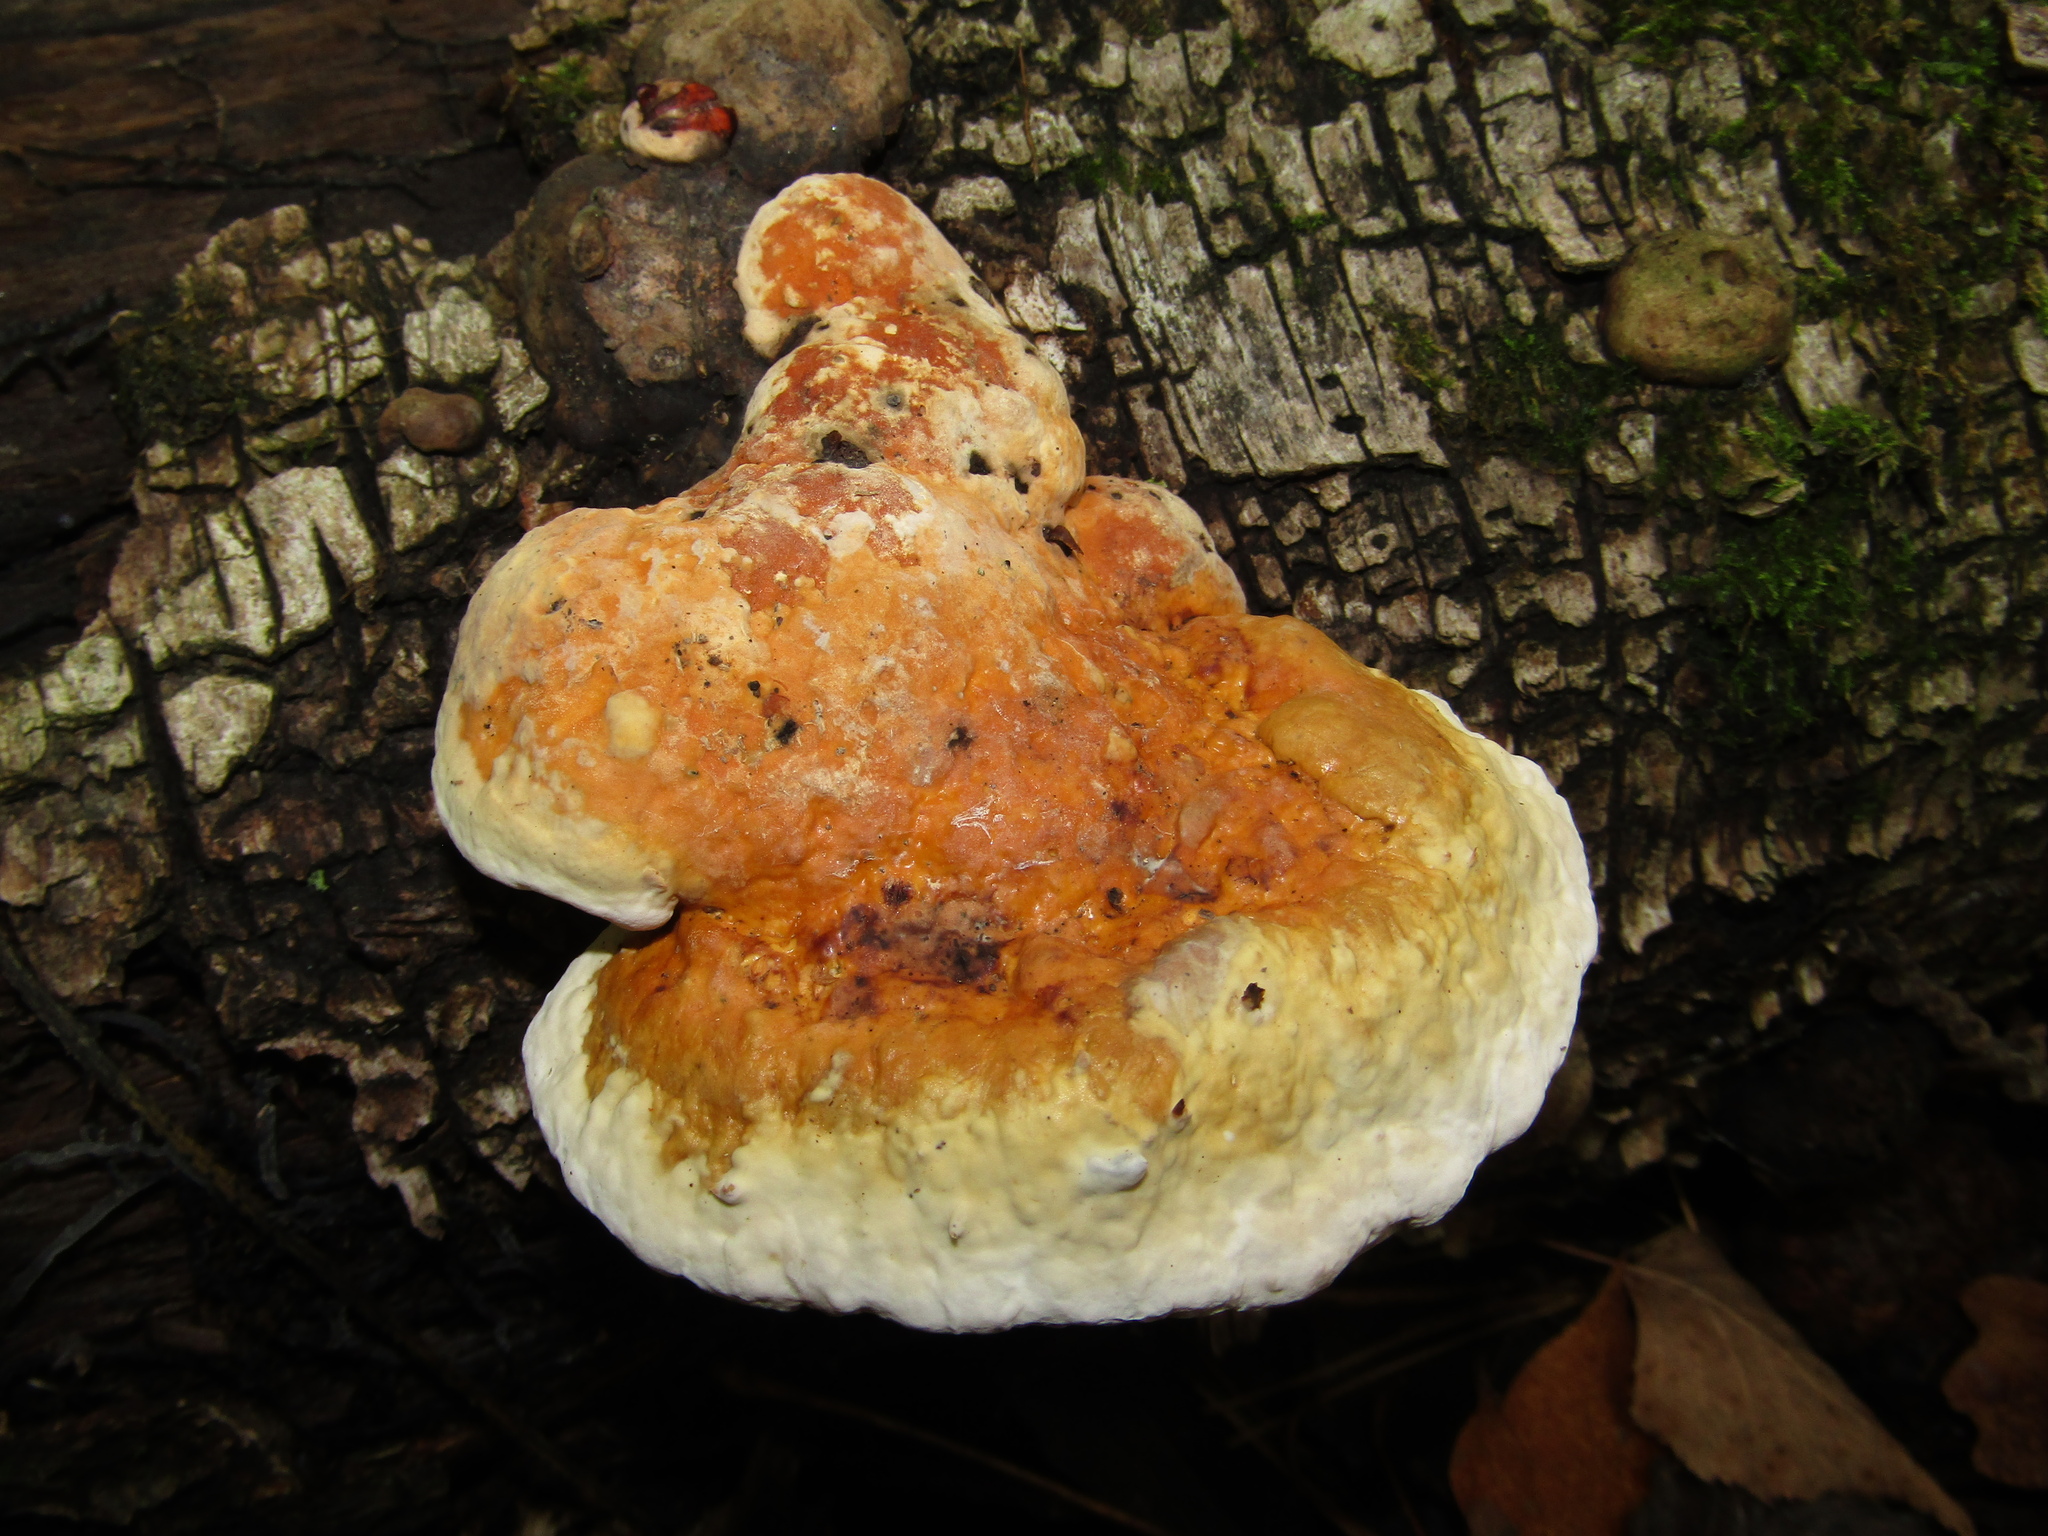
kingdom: Fungi
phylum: Basidiomycota
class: Agaricomycetes
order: Polyporales
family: Fomitopsidaceae
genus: Fomitopsis
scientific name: Fomitopsis pinicola
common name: Red-belted bracket
